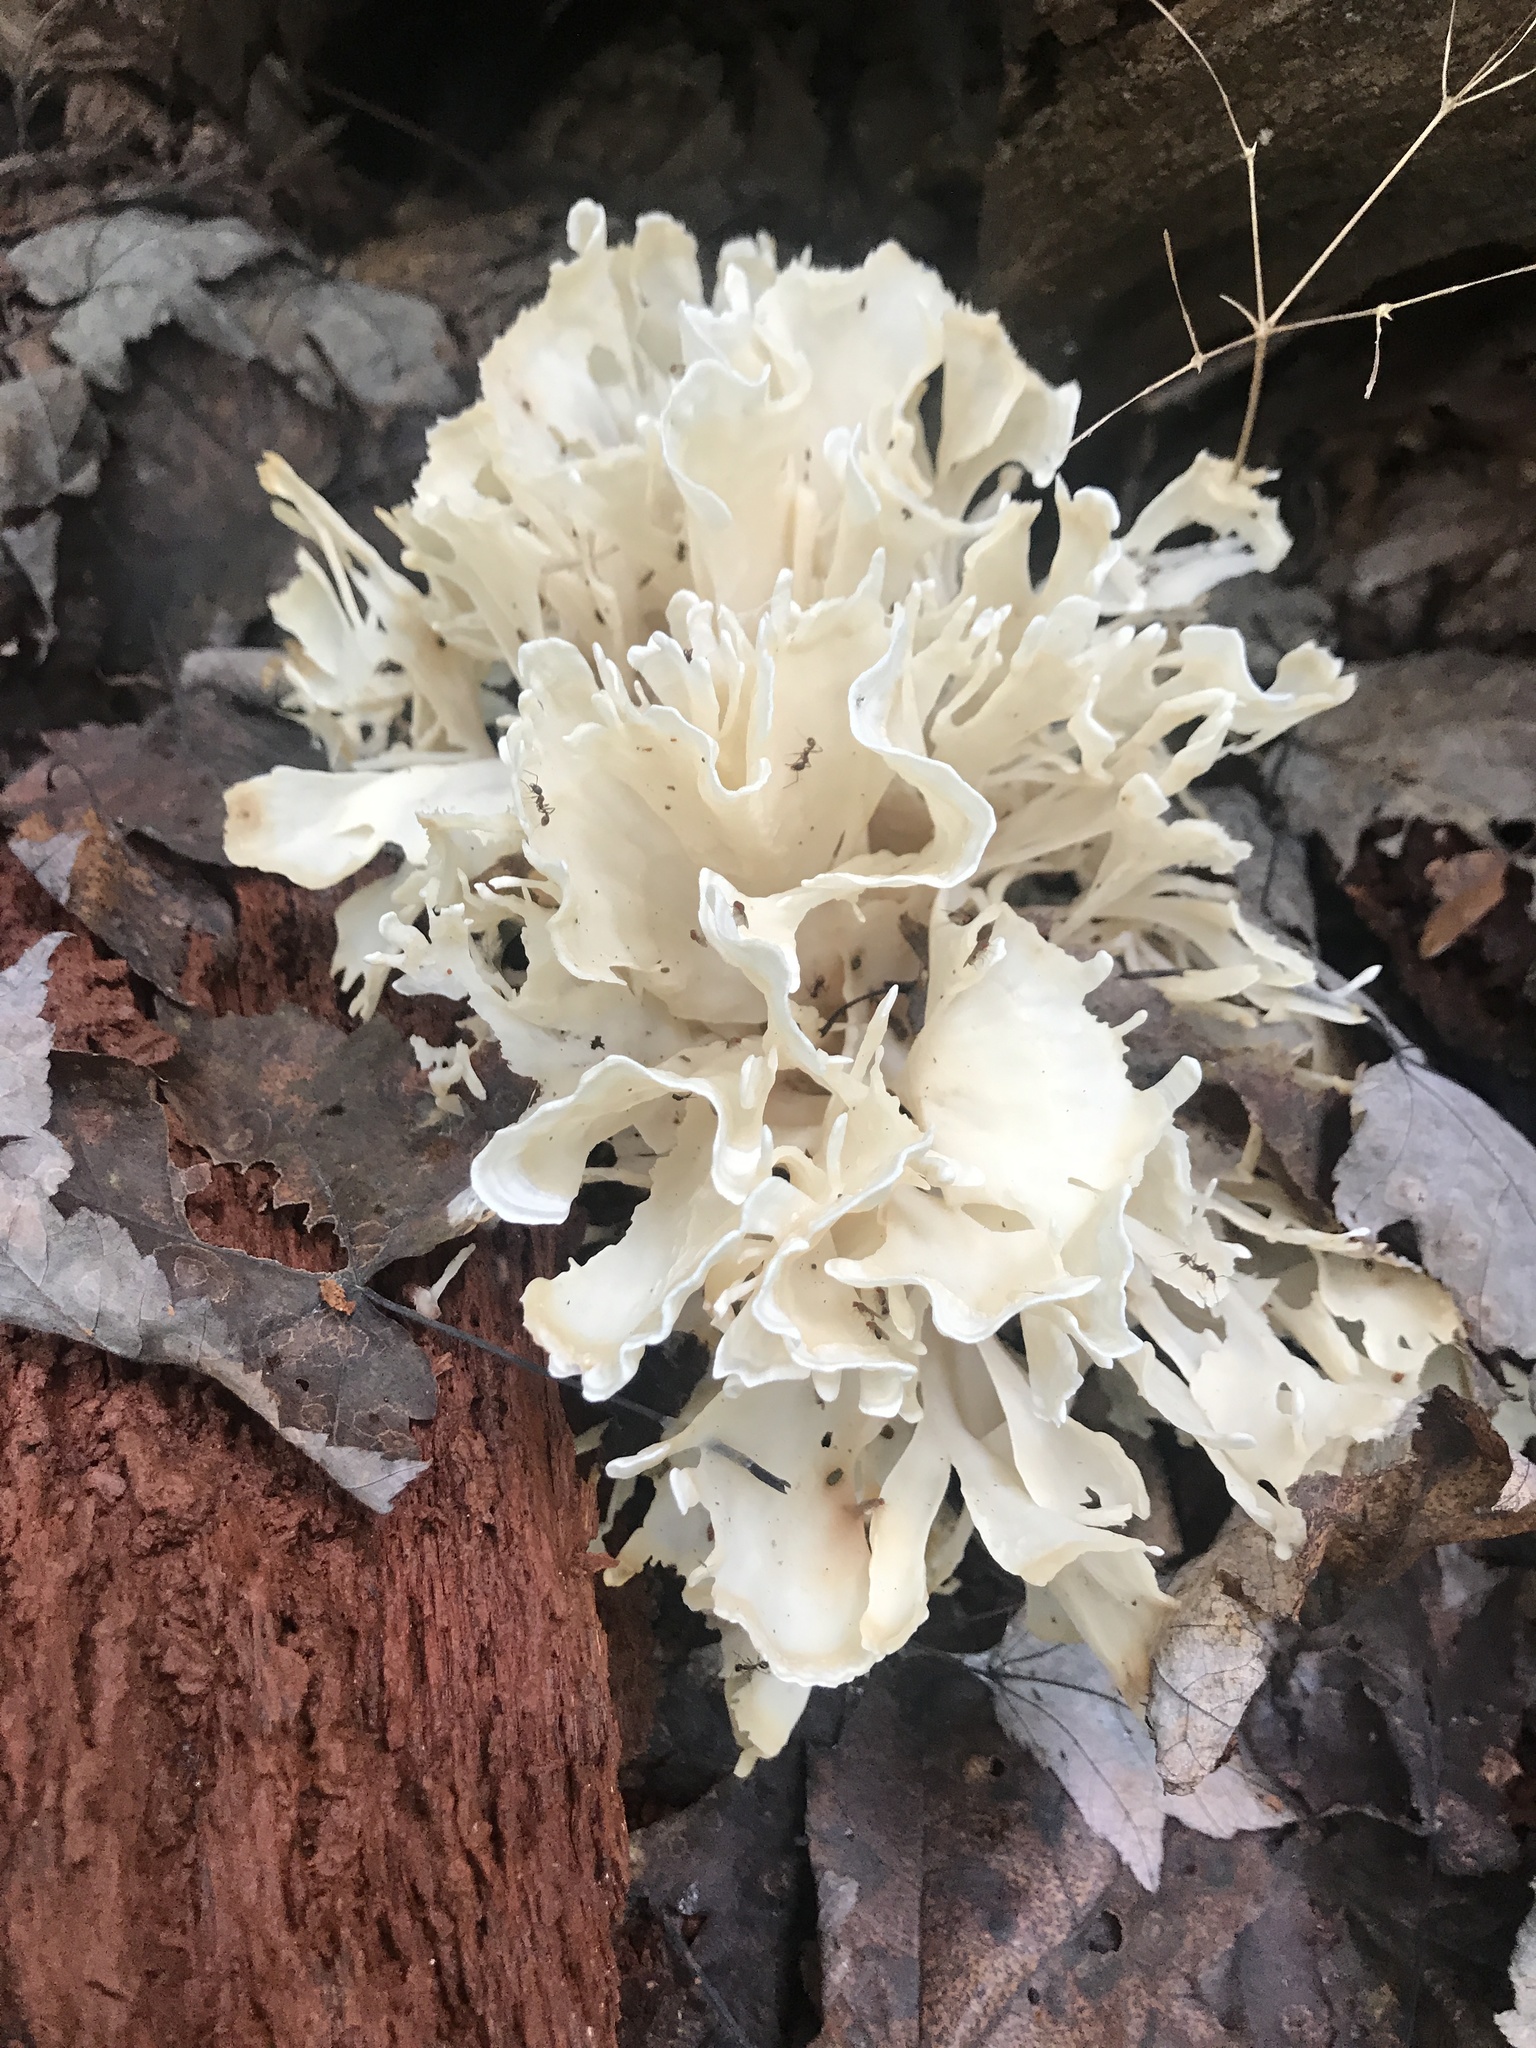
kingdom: Fungi
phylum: Basidiomycota
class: Agaricomycetes
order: Polyporales
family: Sparassidaceae
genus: Sparassis
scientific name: Sparassis spathulata
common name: Eastern cauliflower mushroom
